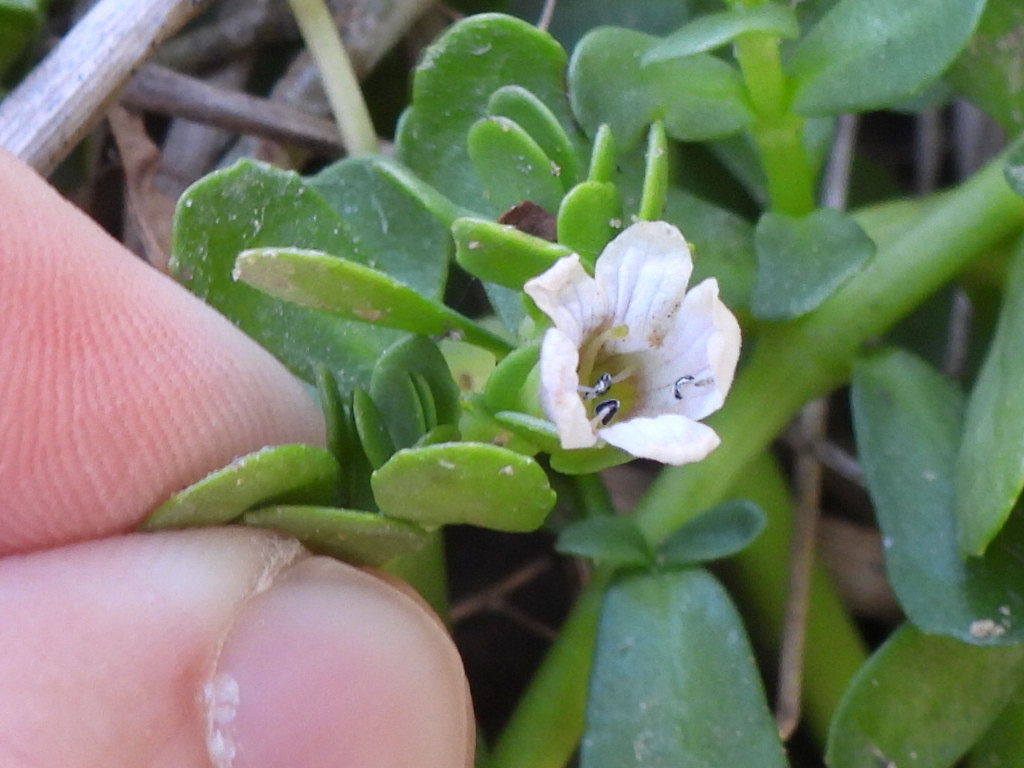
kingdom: Plantae
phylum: Tracheophyta
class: Magnoliopsida
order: Lamiales
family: Plantaginaceae
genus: Bacopa
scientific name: Bacopa monnieri
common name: Indian-pennywort
